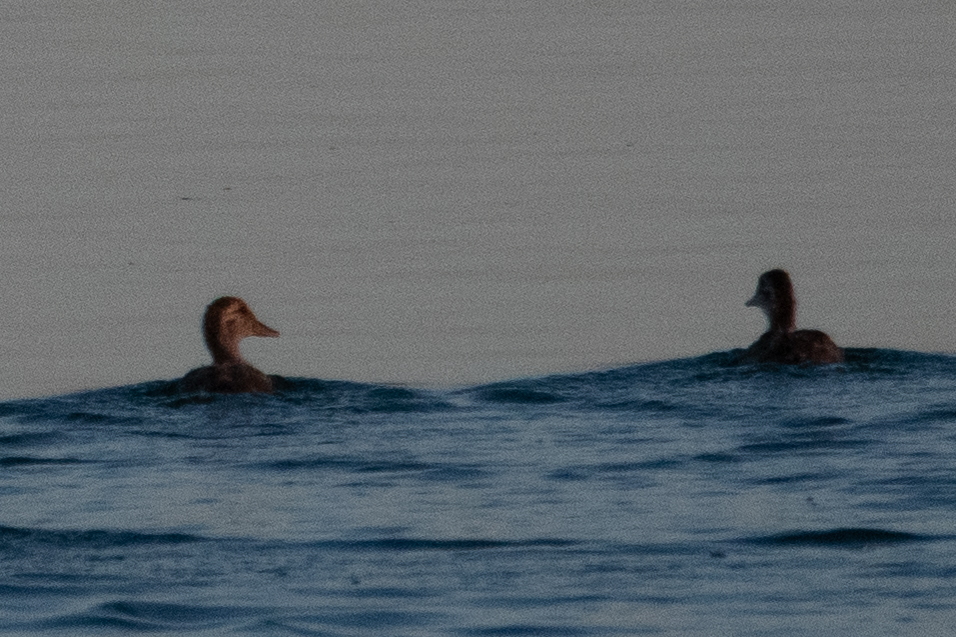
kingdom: Animalia
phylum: Chordata
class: Aves
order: Anseriformes
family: Anatidae
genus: Anas
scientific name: Anas platyrhynchos
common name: Mallard
